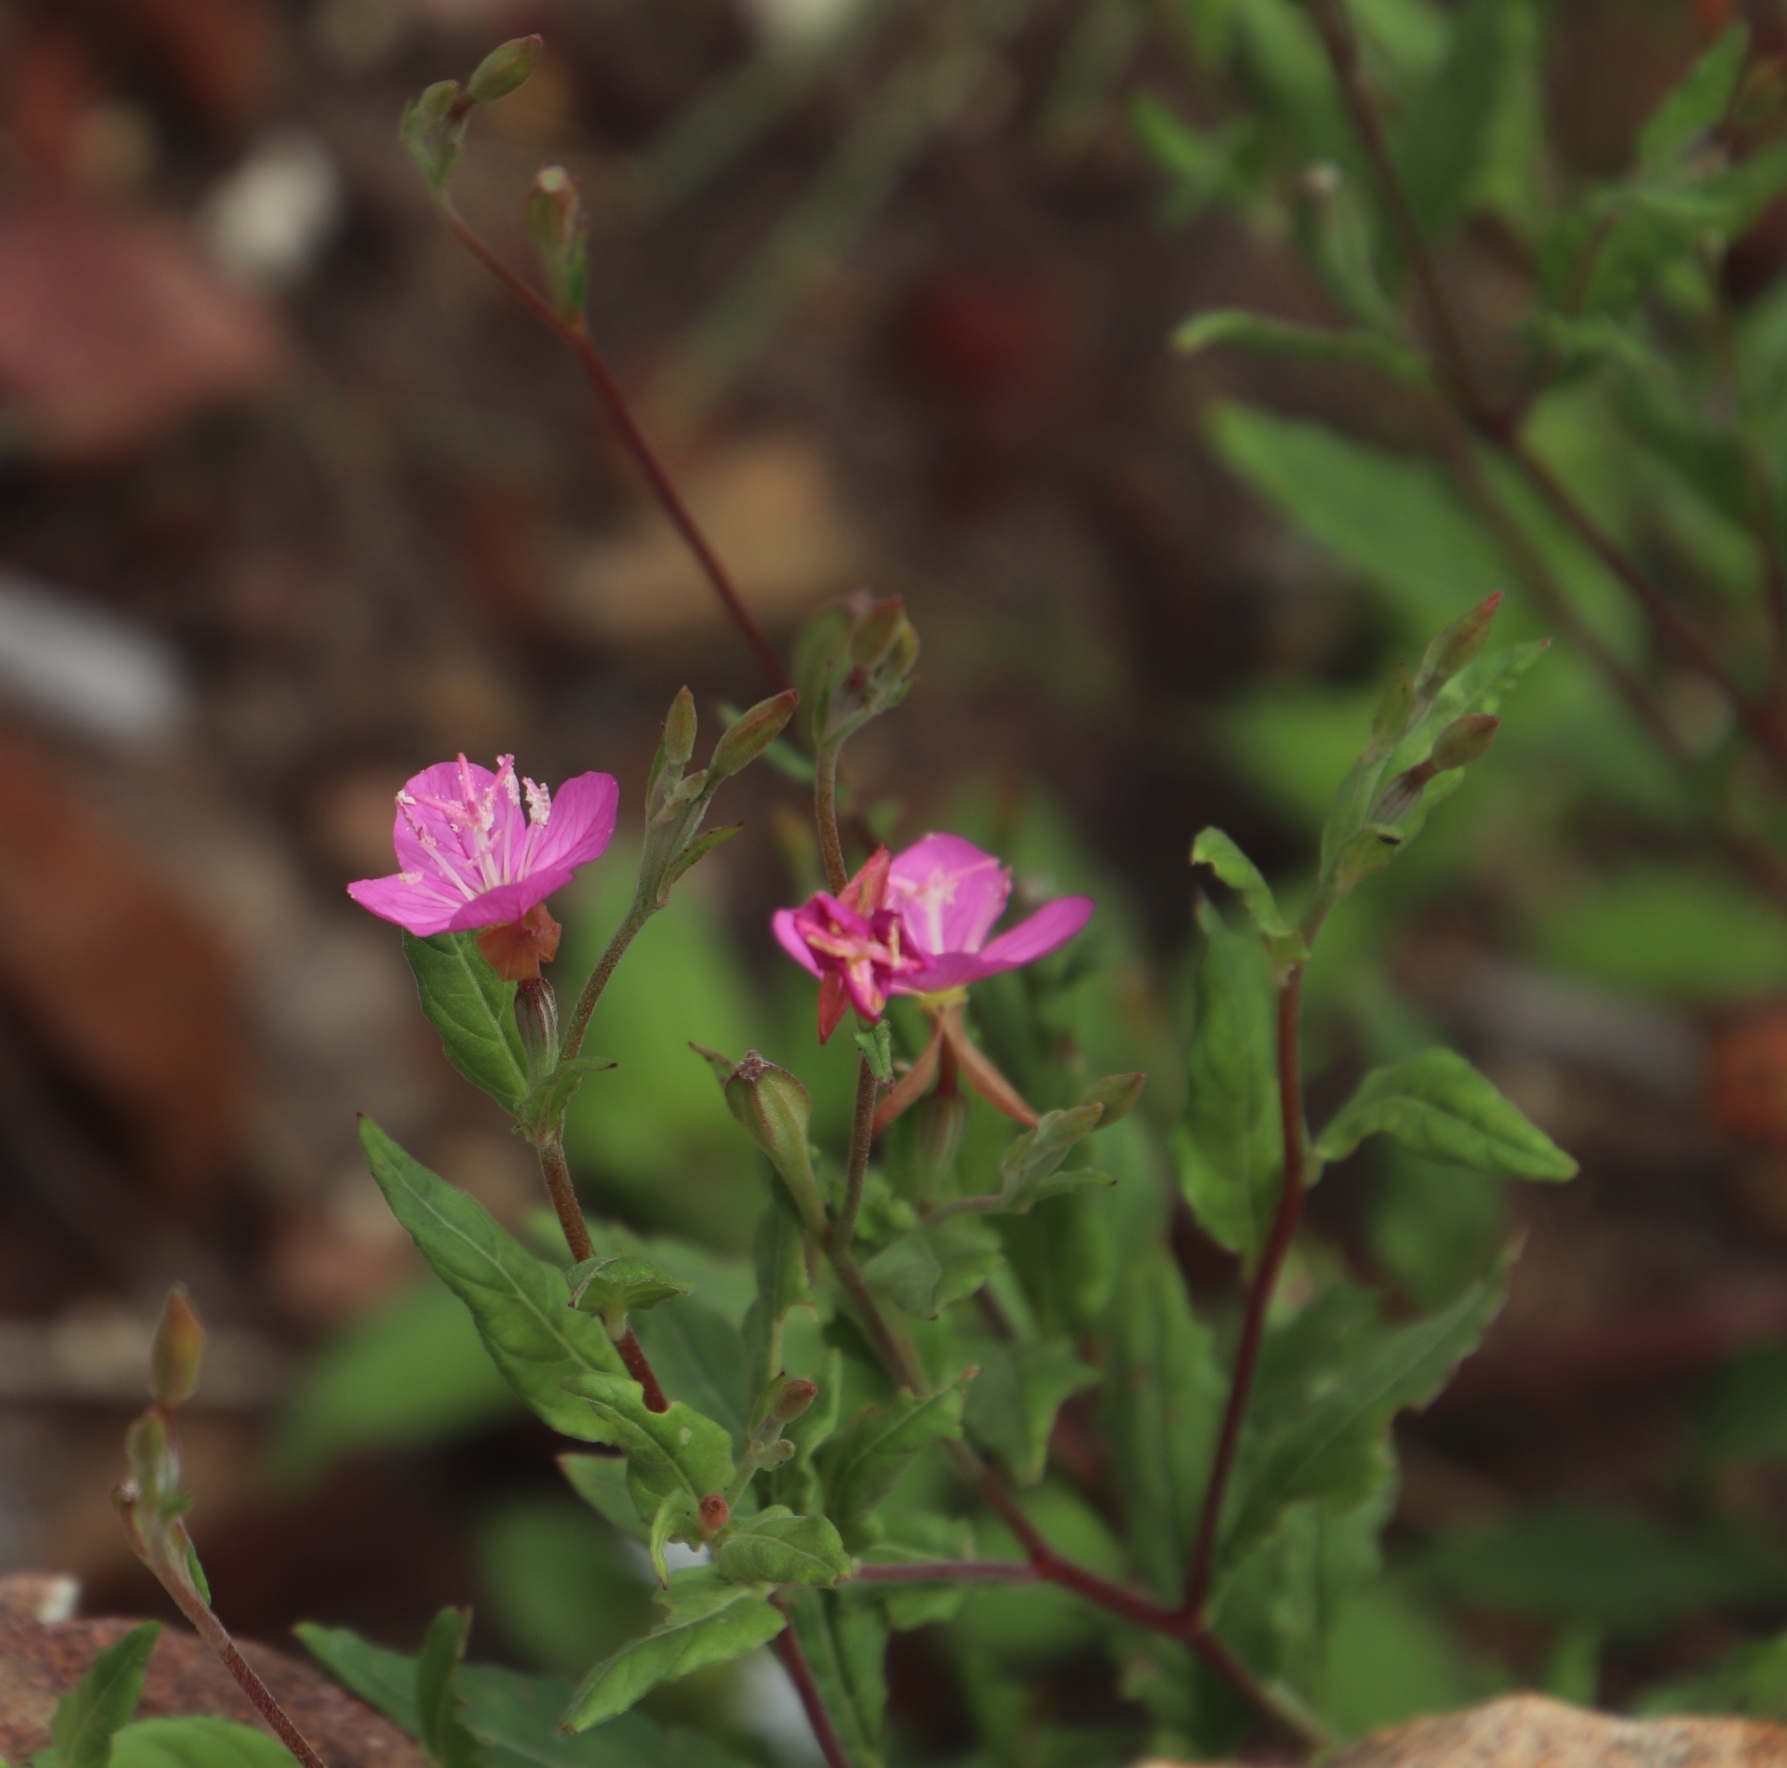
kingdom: Plantae
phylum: Tracheophyta
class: Magnoliopsida
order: Myrtales
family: Onagraceae
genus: Oenothera
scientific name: Oenothera rosea
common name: Rosy evening-primrose
